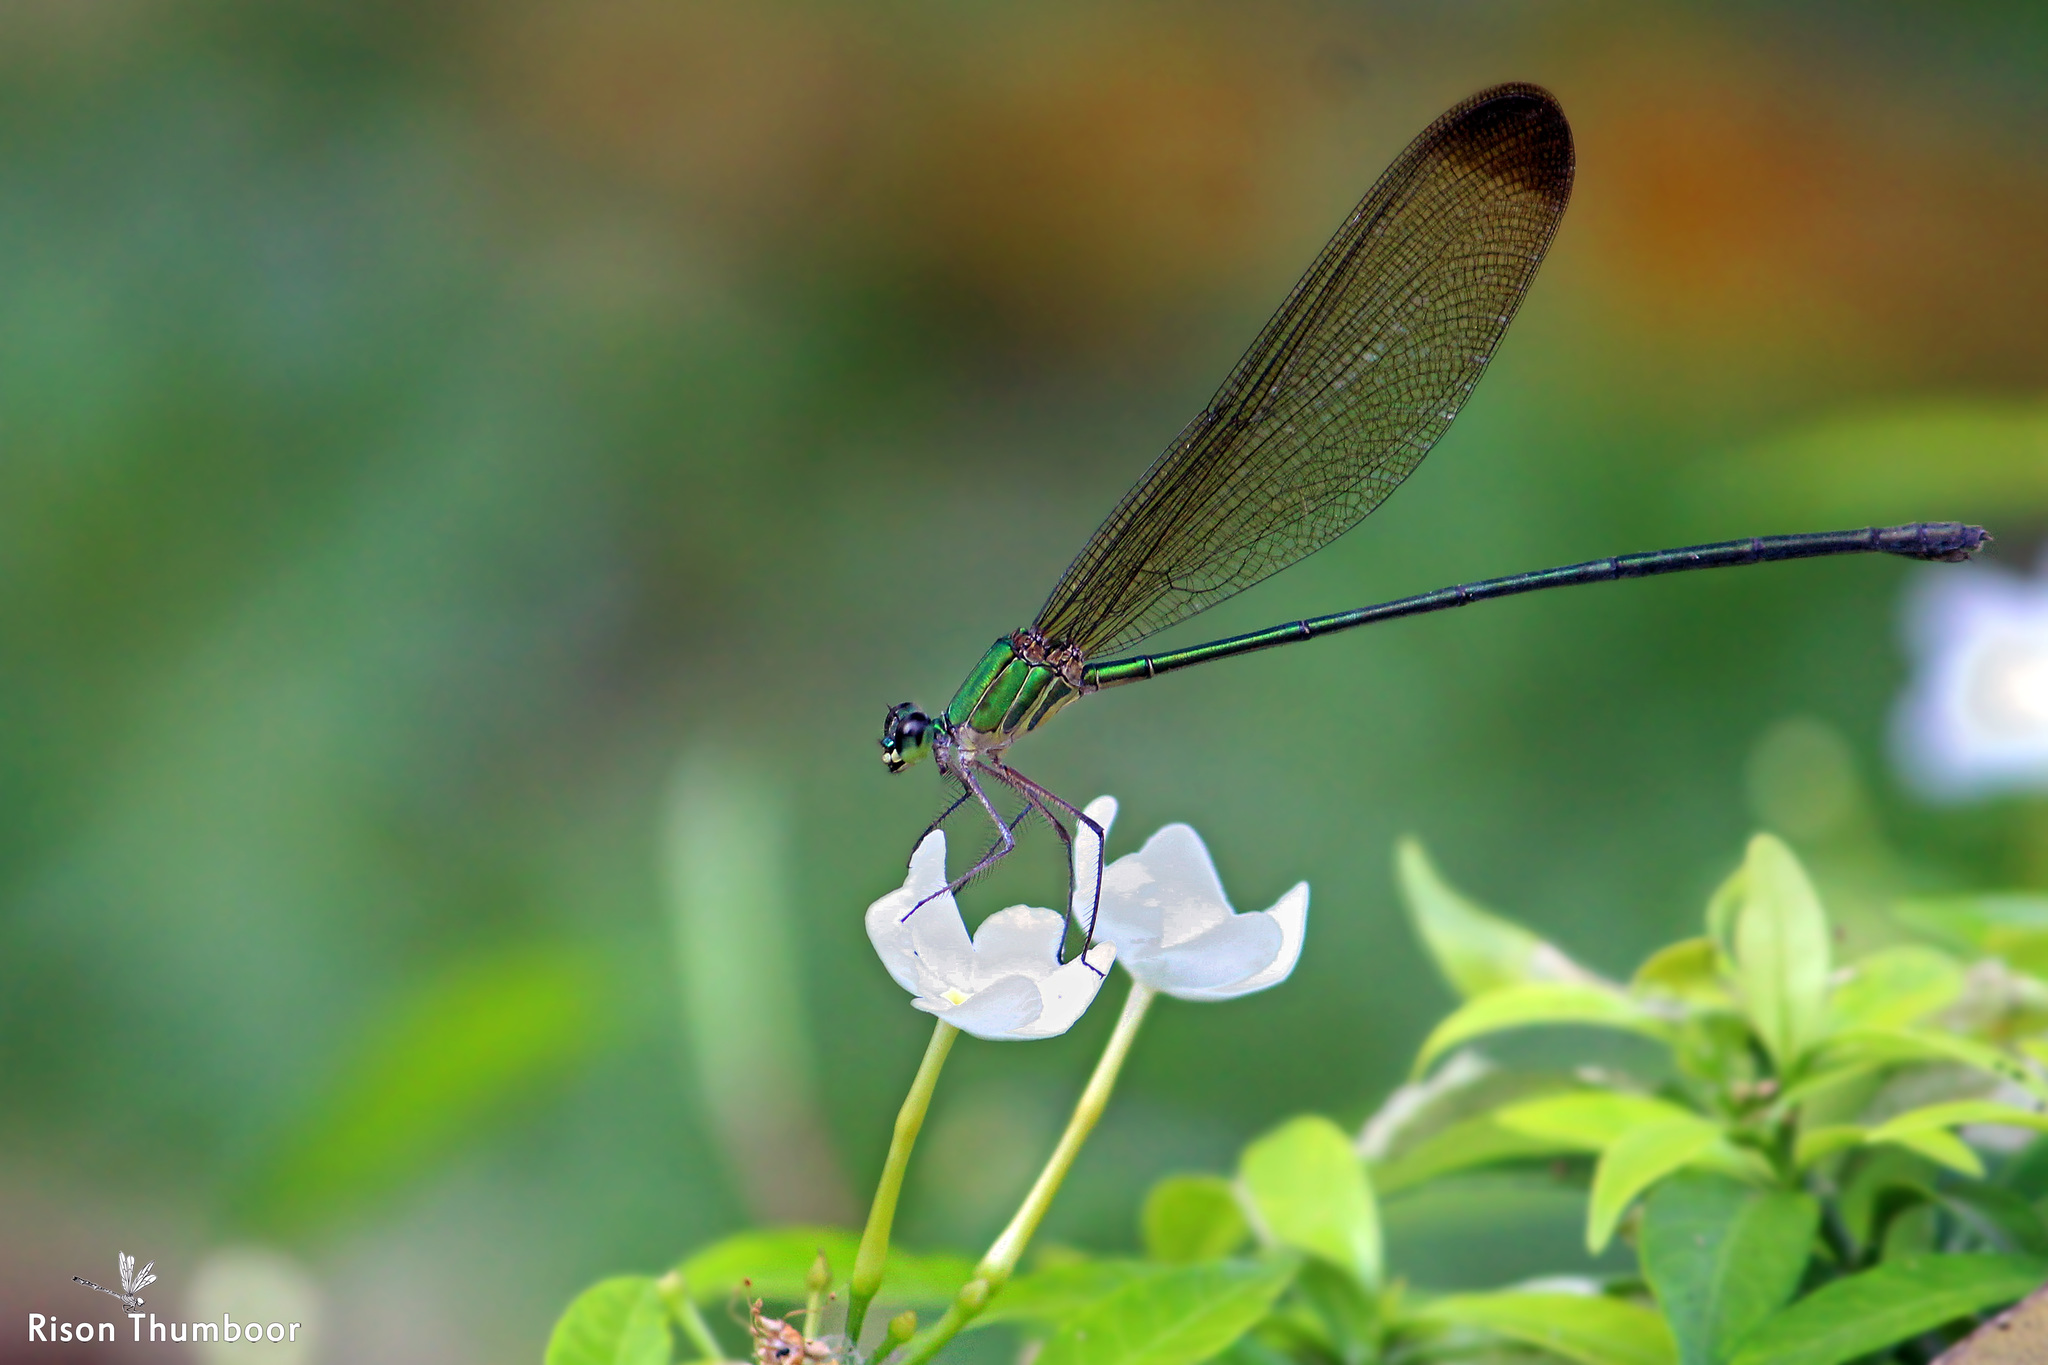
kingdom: Animalia
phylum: Arthropoda
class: Insecta
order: Odonata
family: Calopterygidae
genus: Vestalis
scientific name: Vestalis apicalis
